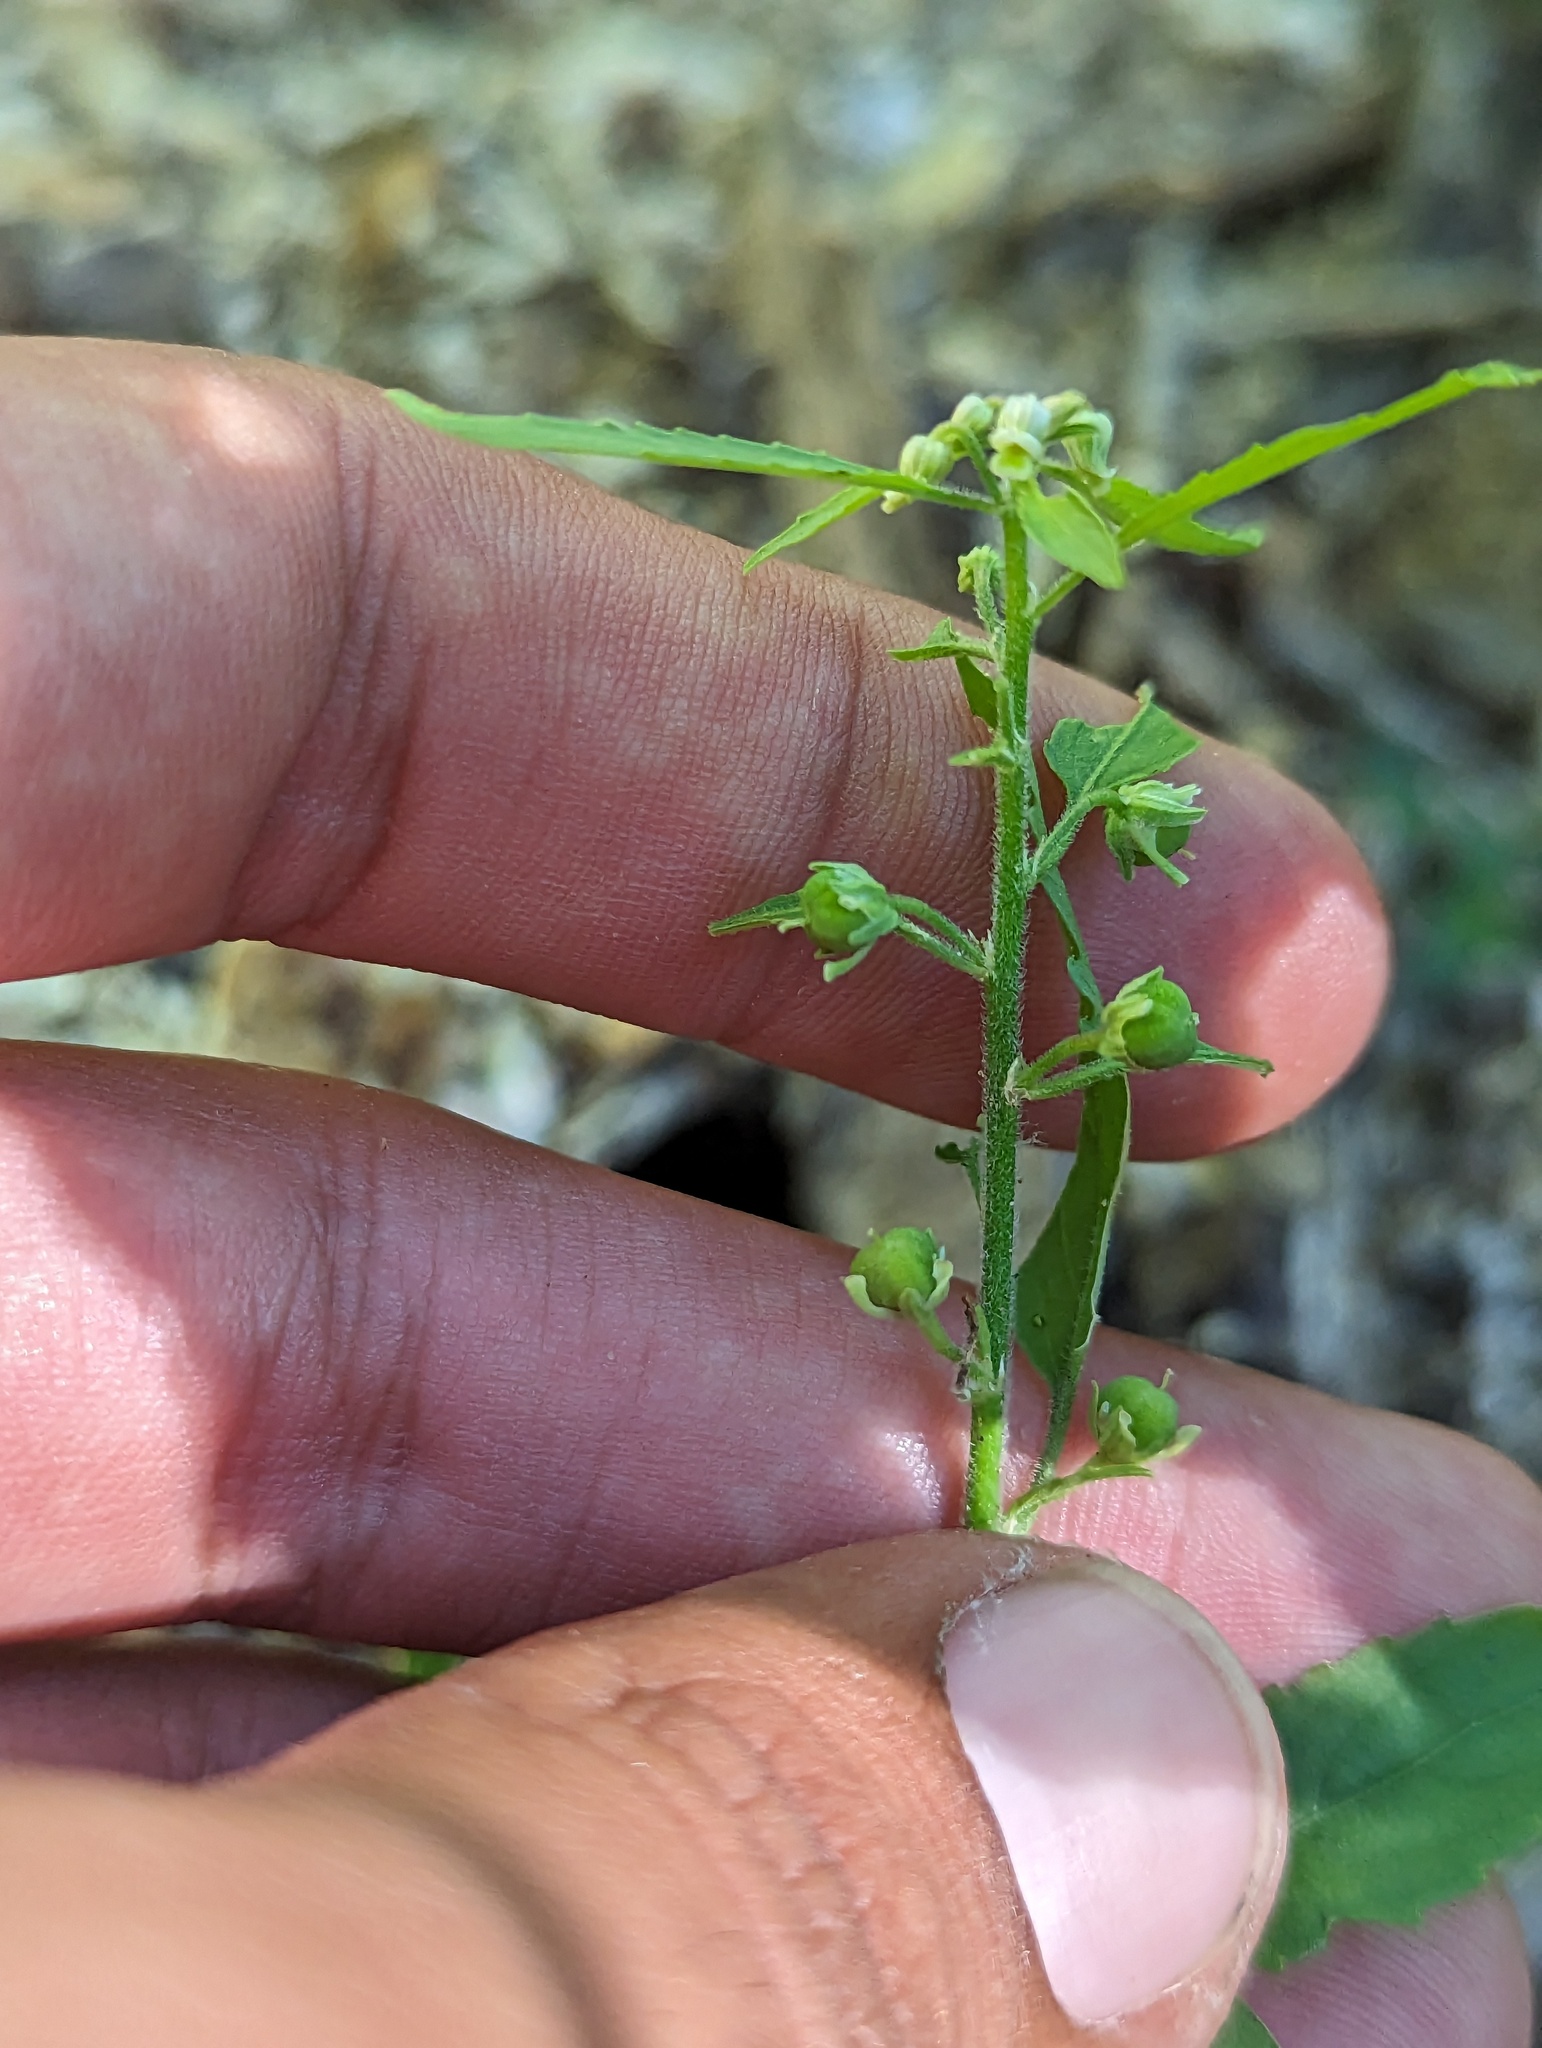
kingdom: Plantae
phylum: Tracheophyta
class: Magnoliopsida
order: Malpighiales
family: Violaceae
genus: Hybanthus
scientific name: Hybanthus fruticulosus
